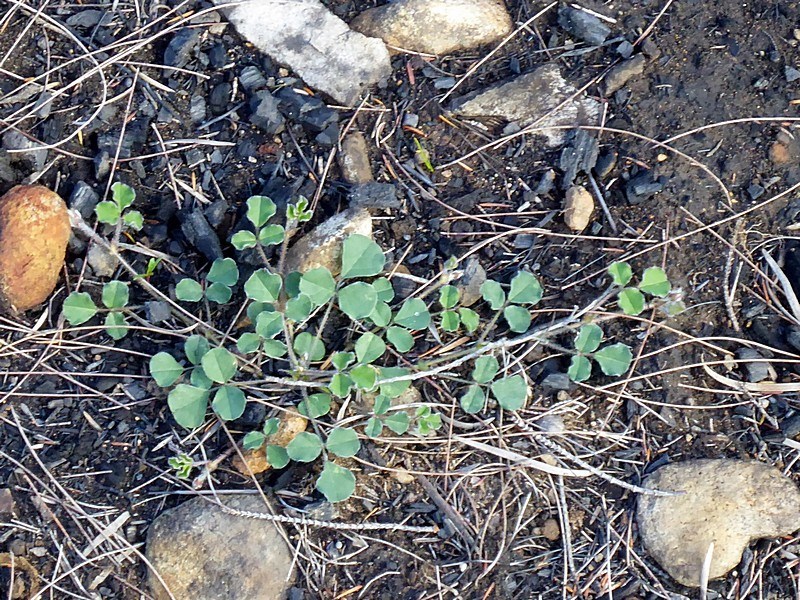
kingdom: Plantae
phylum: Tracheophyta
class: Magnoliopsida
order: Fabales
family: Fabaceae
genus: Kennedia
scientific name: Kennedia prostrata
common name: Running-postman
